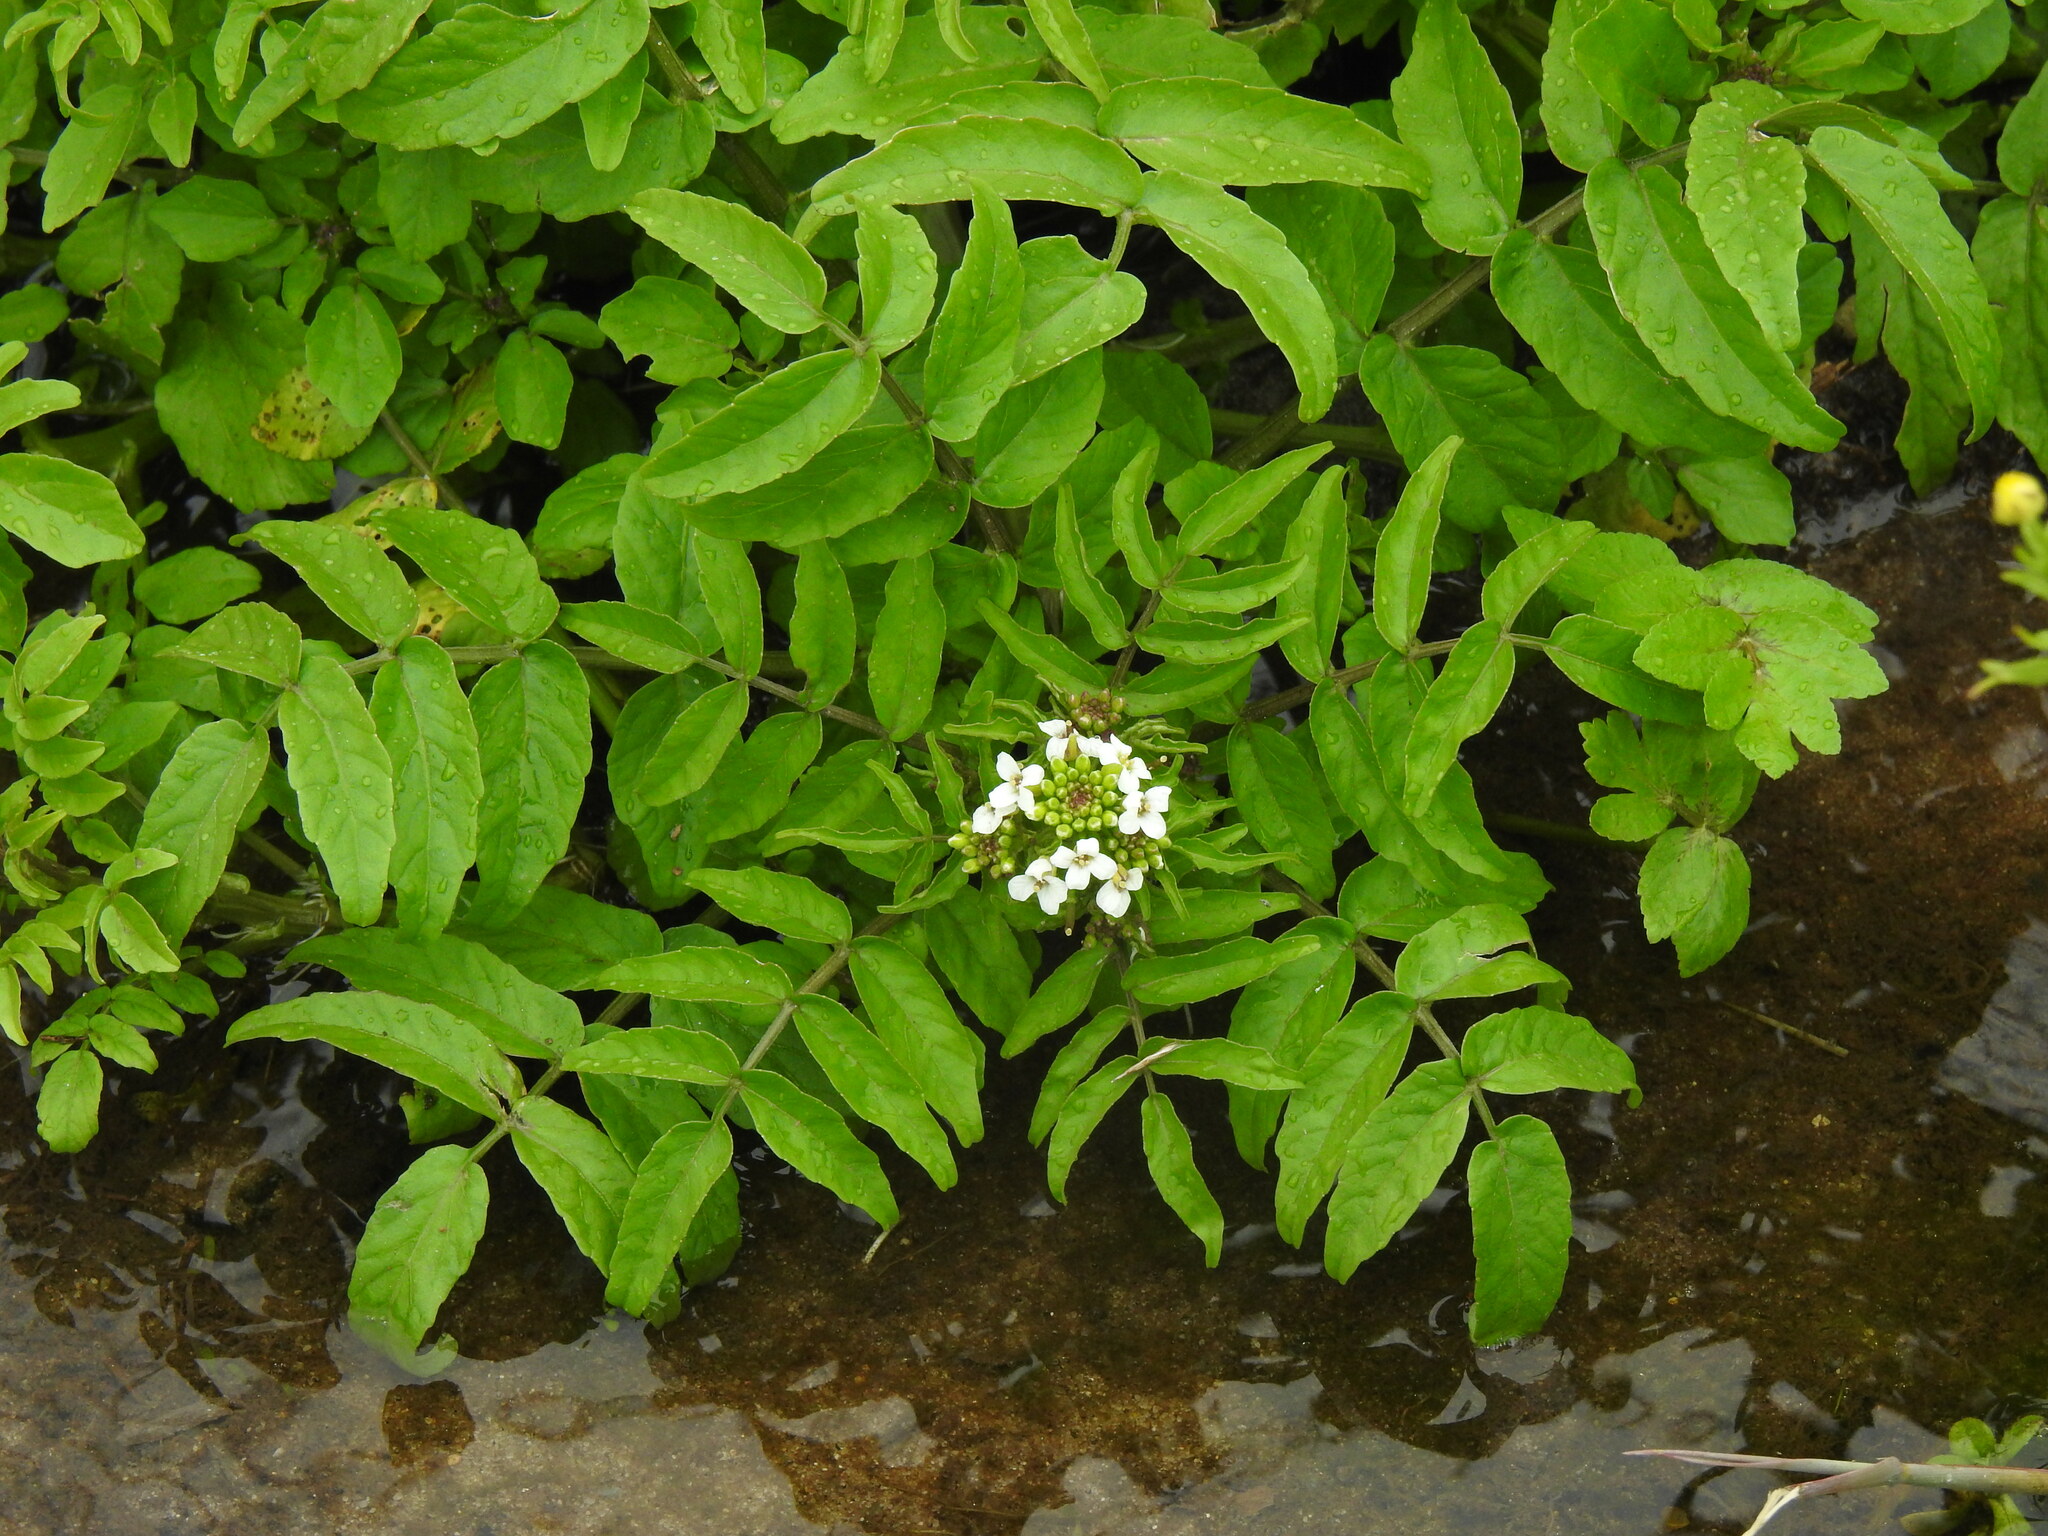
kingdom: Plantae
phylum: Tracheophyta
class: Magnoliopsida
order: Brassicales
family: Brassicaceae
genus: Nasturtium
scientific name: Nasturtium officinale
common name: Watercress
